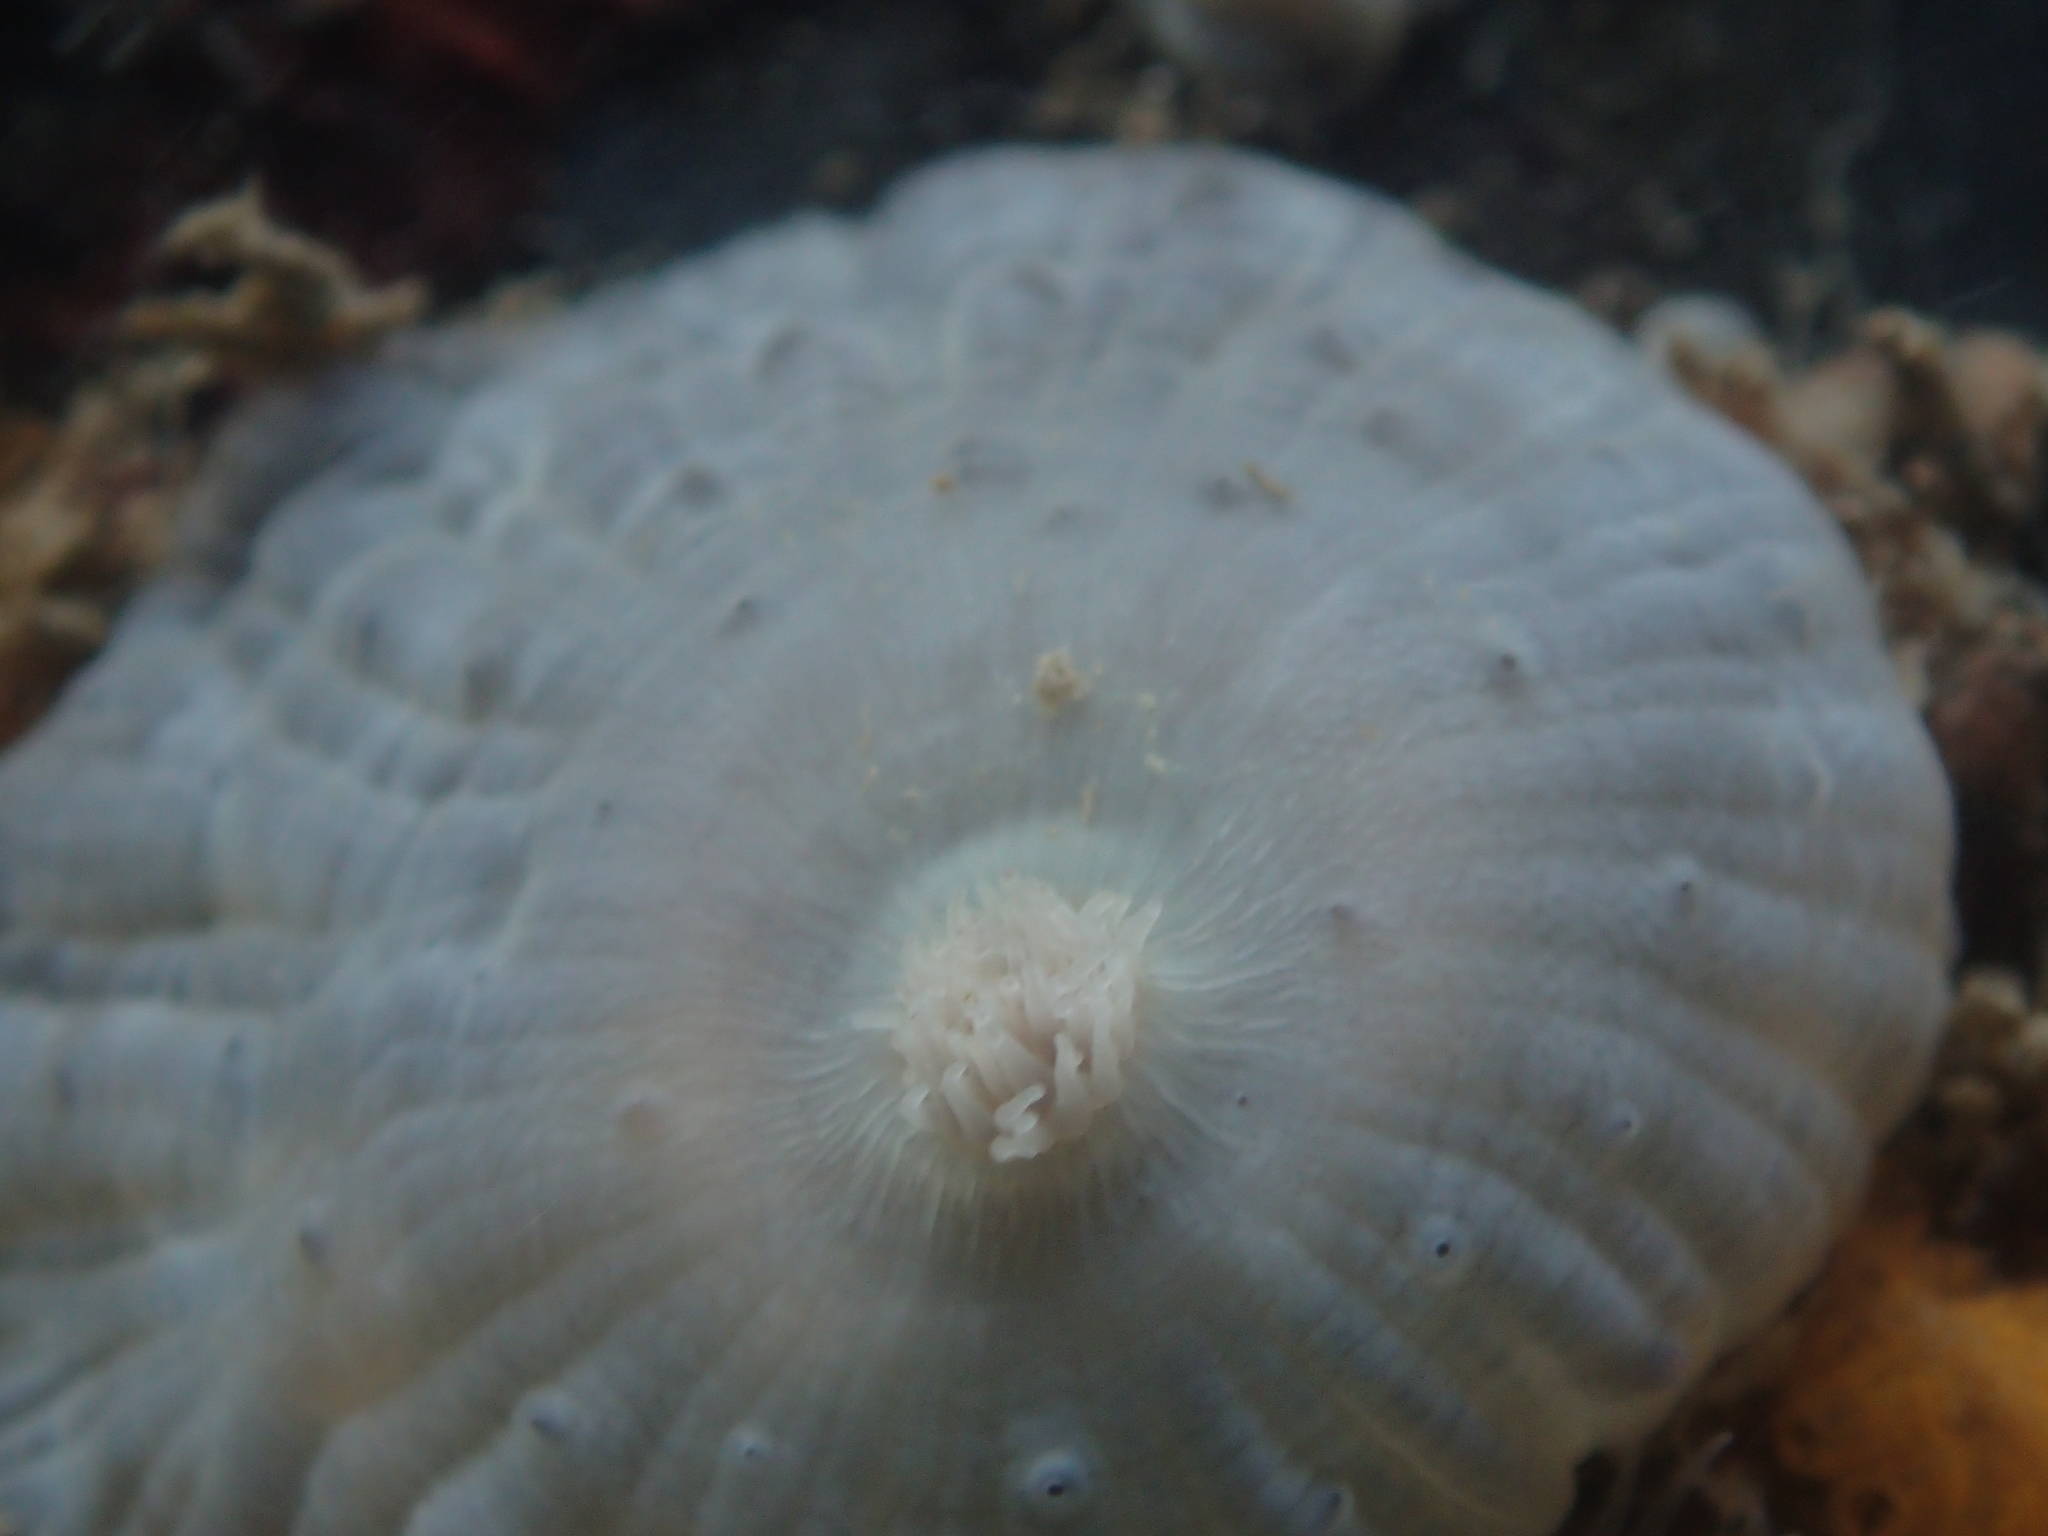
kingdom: Animalia
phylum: Cnidaria
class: Anthozoa
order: Actiniaria
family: Metridiidae
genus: Metridium
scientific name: Metridium senile
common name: Clonal plumose anemone
